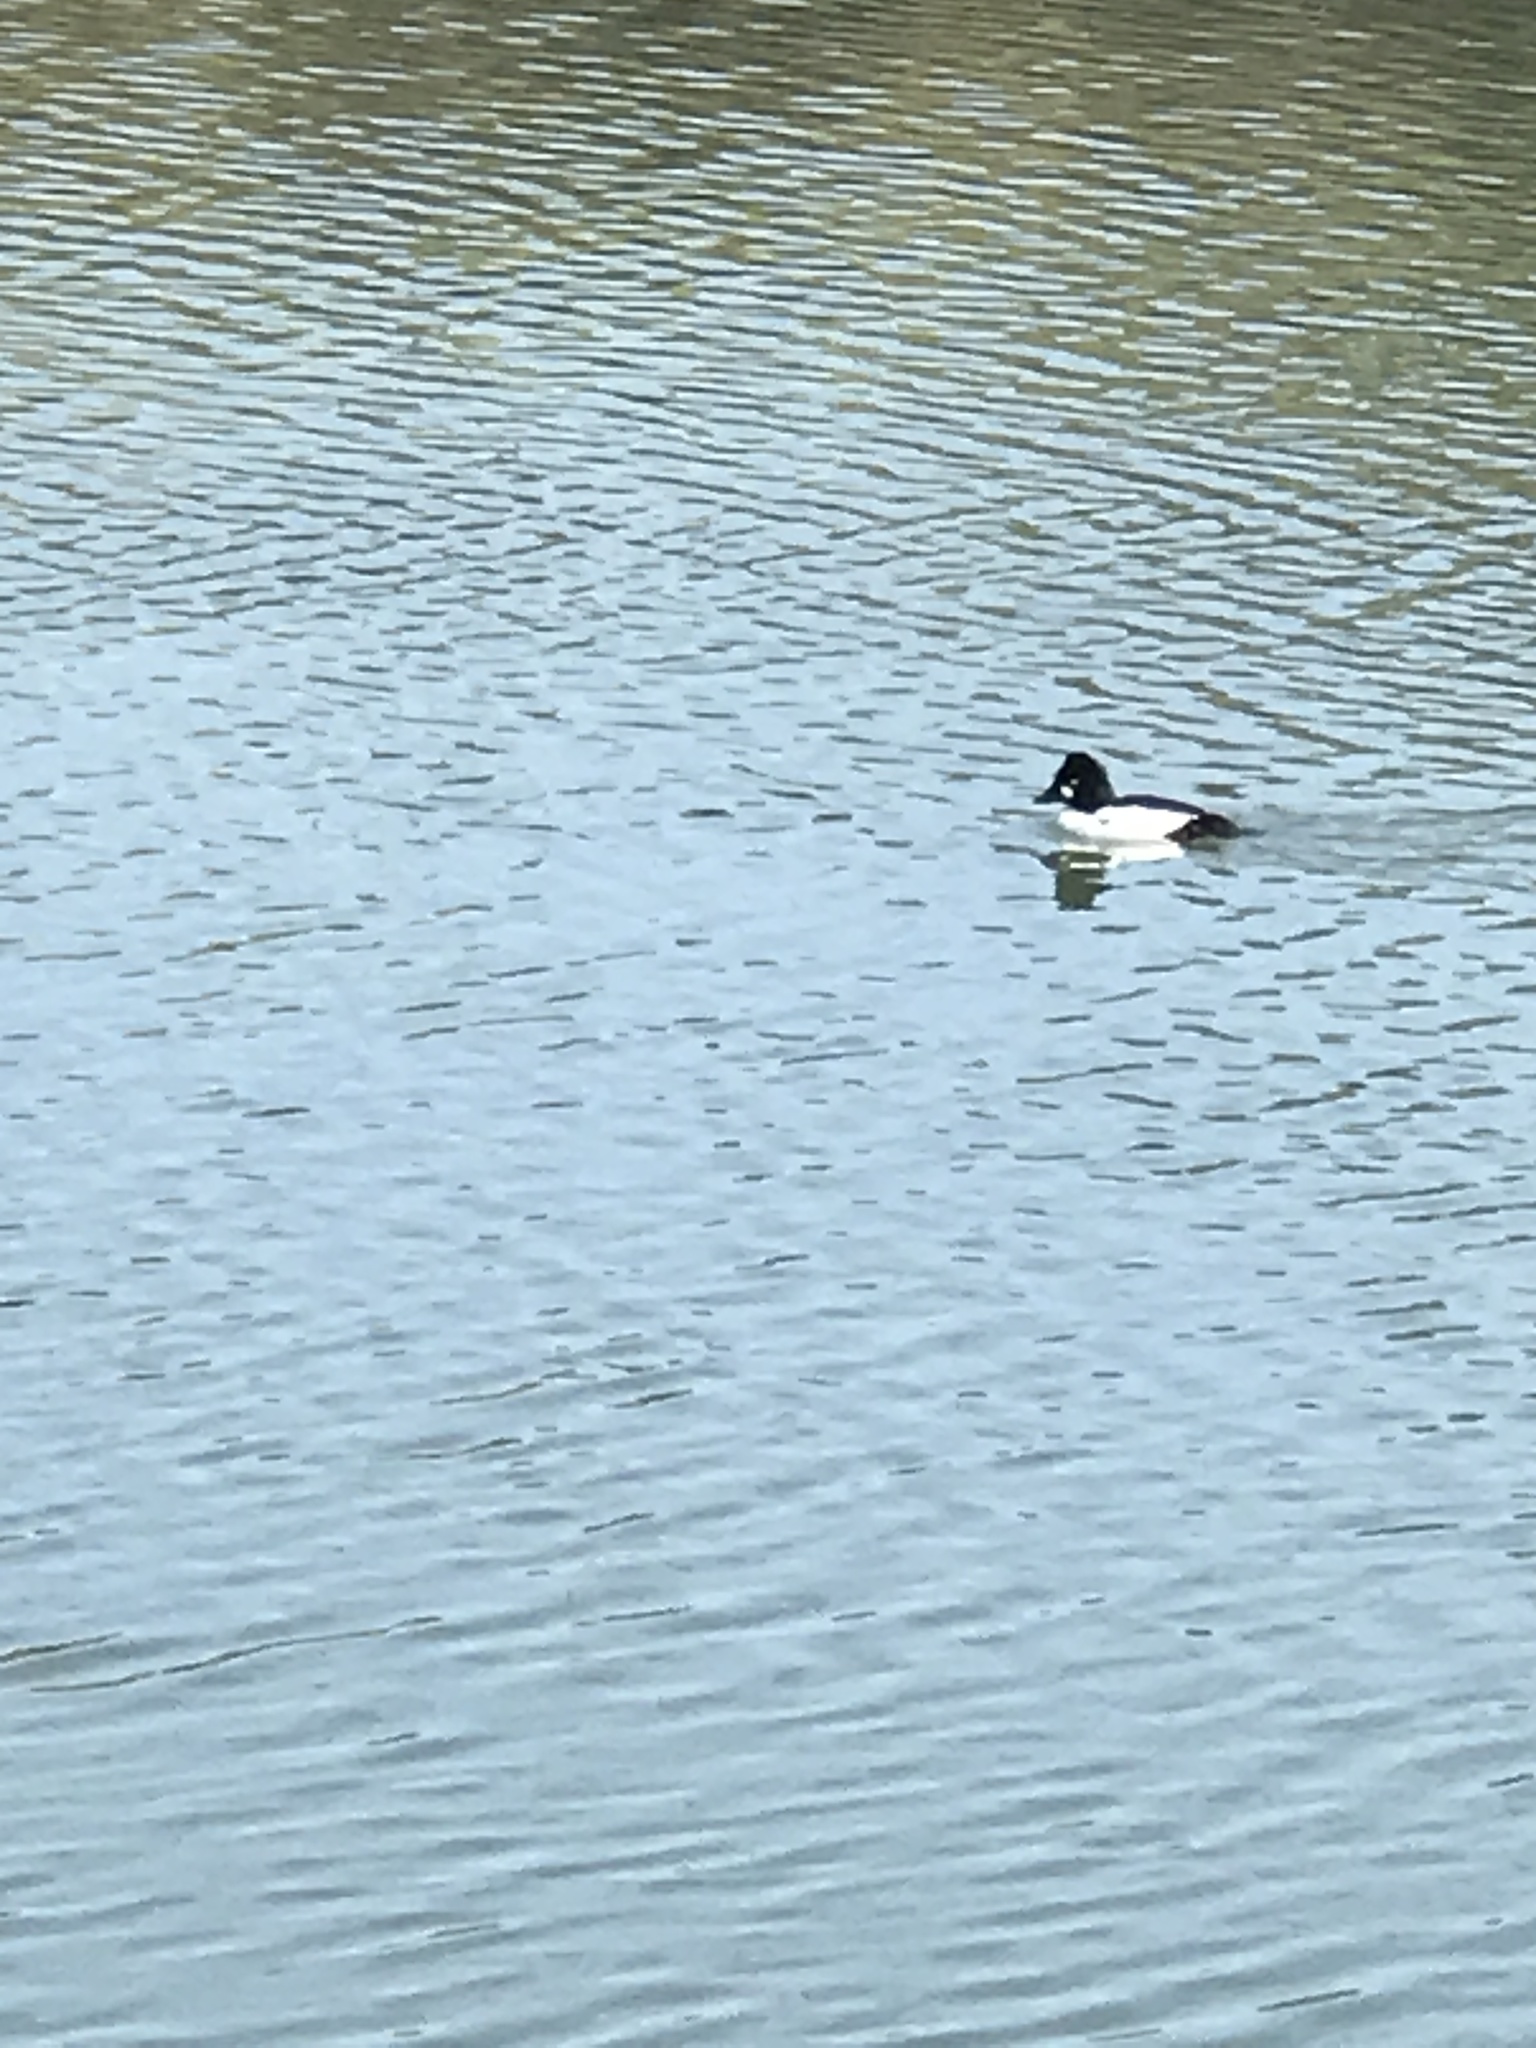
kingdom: Animalia
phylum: Chordata
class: Aves
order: Anseriformes
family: Anatidae
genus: Bucephala
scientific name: Bucephala clangula
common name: Common goldeneye
